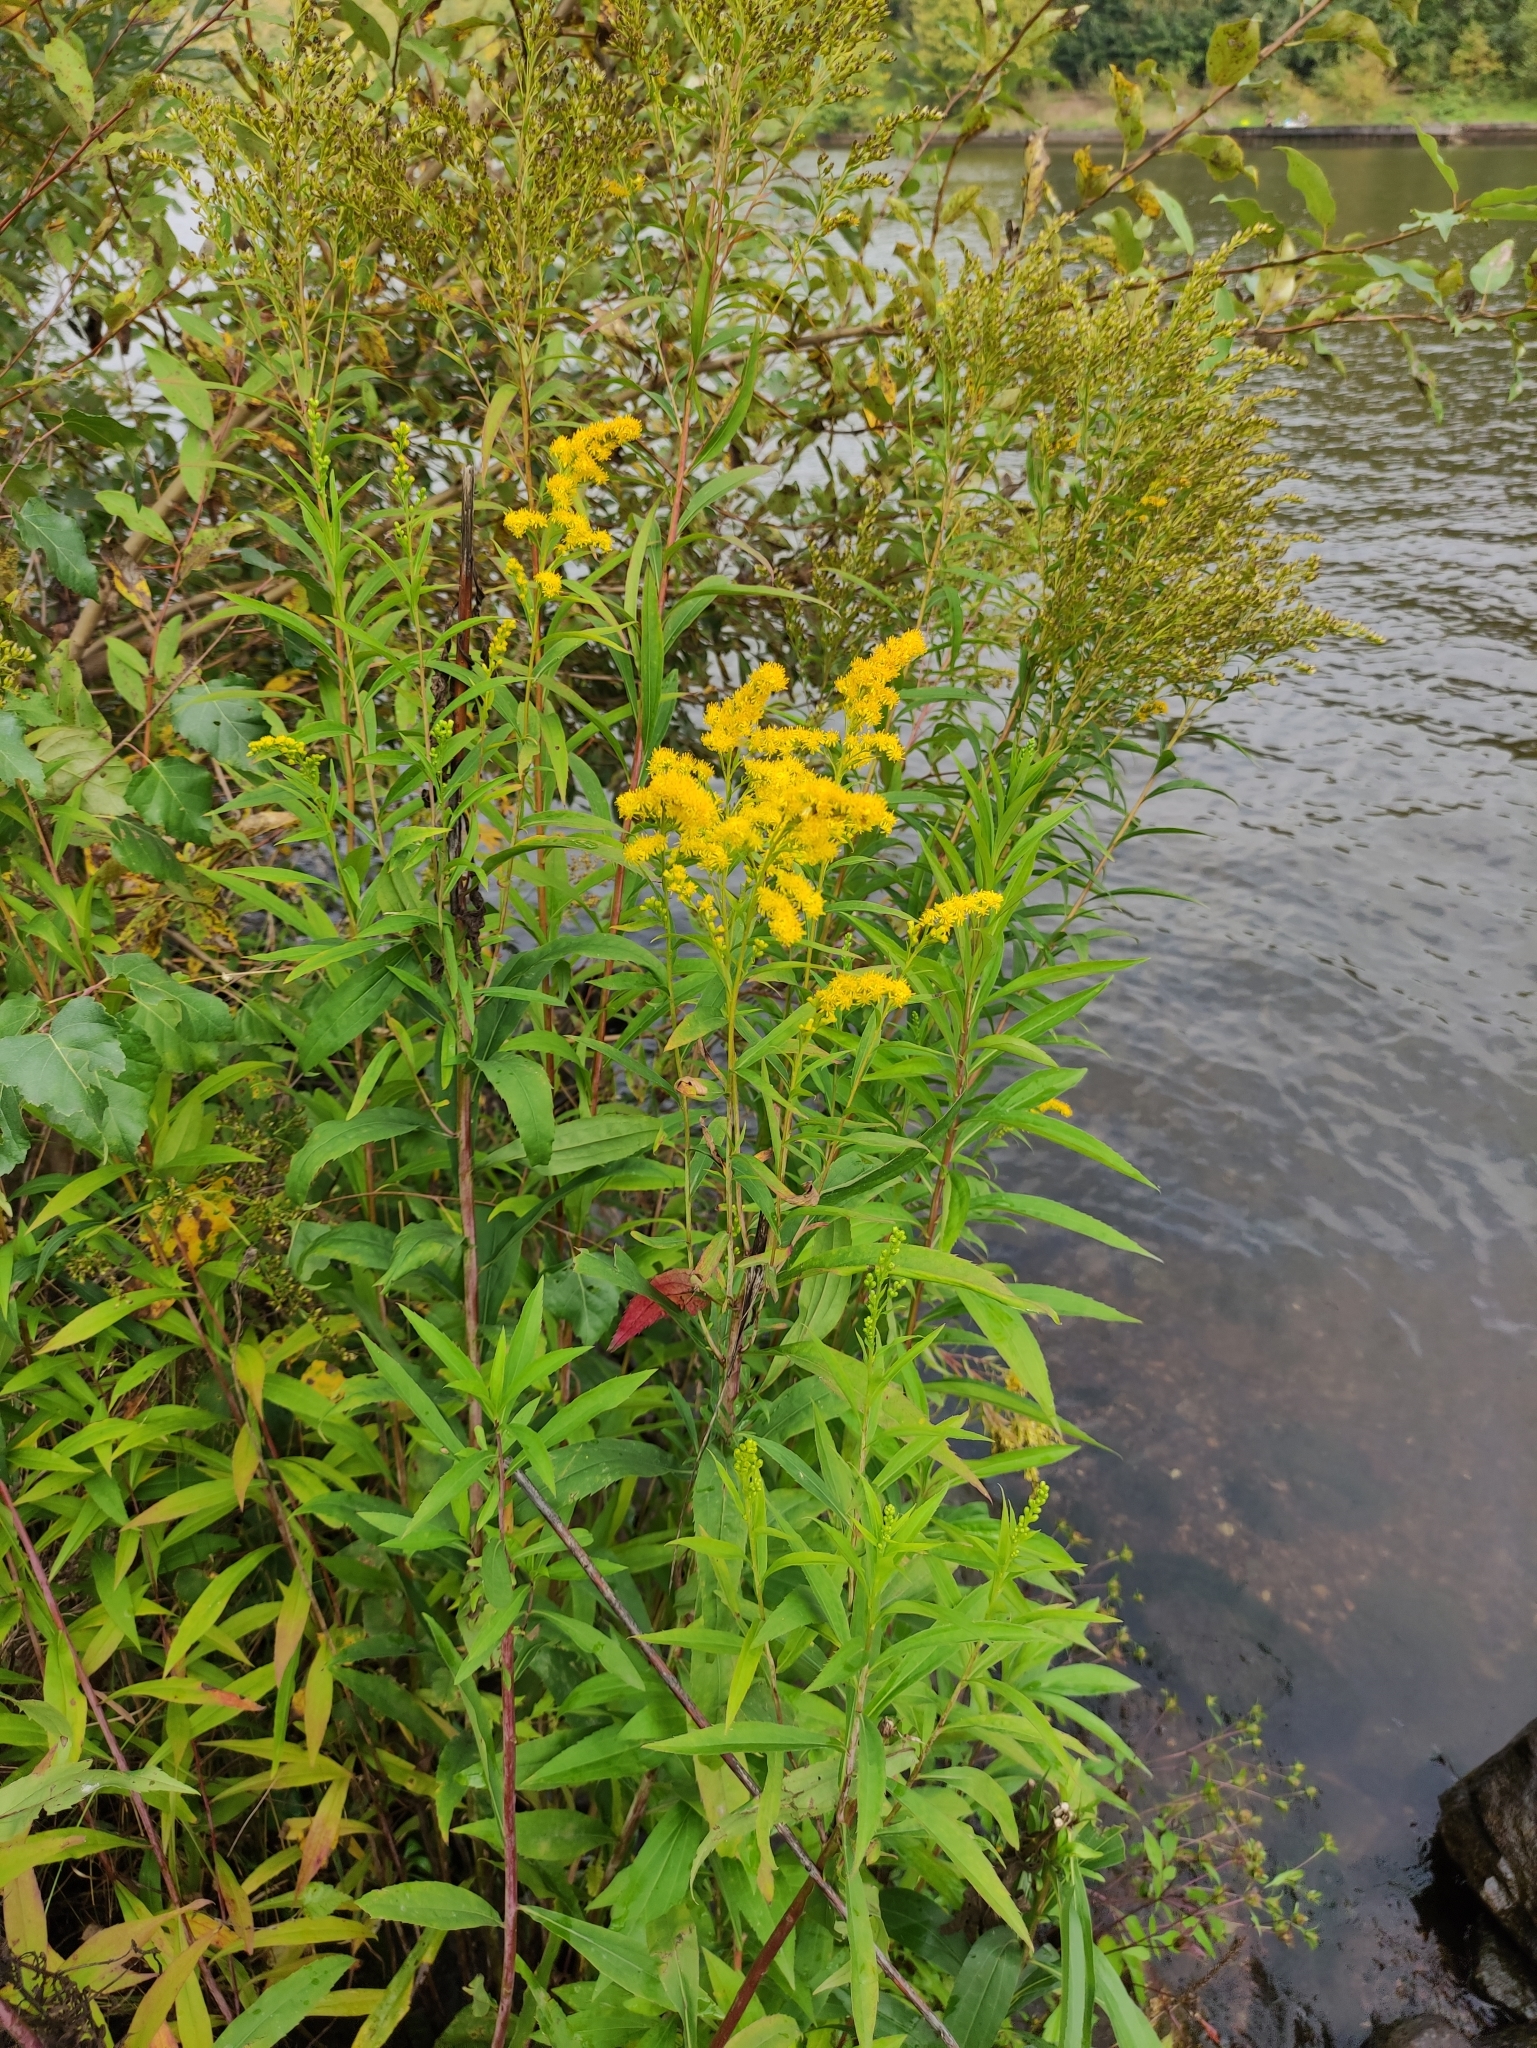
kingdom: Plantae
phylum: Tracheophyta
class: Magnoliopsida
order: Asterales
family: Asteraceae
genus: Solidago
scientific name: Solidago gigantea
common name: Giant goldenrod
